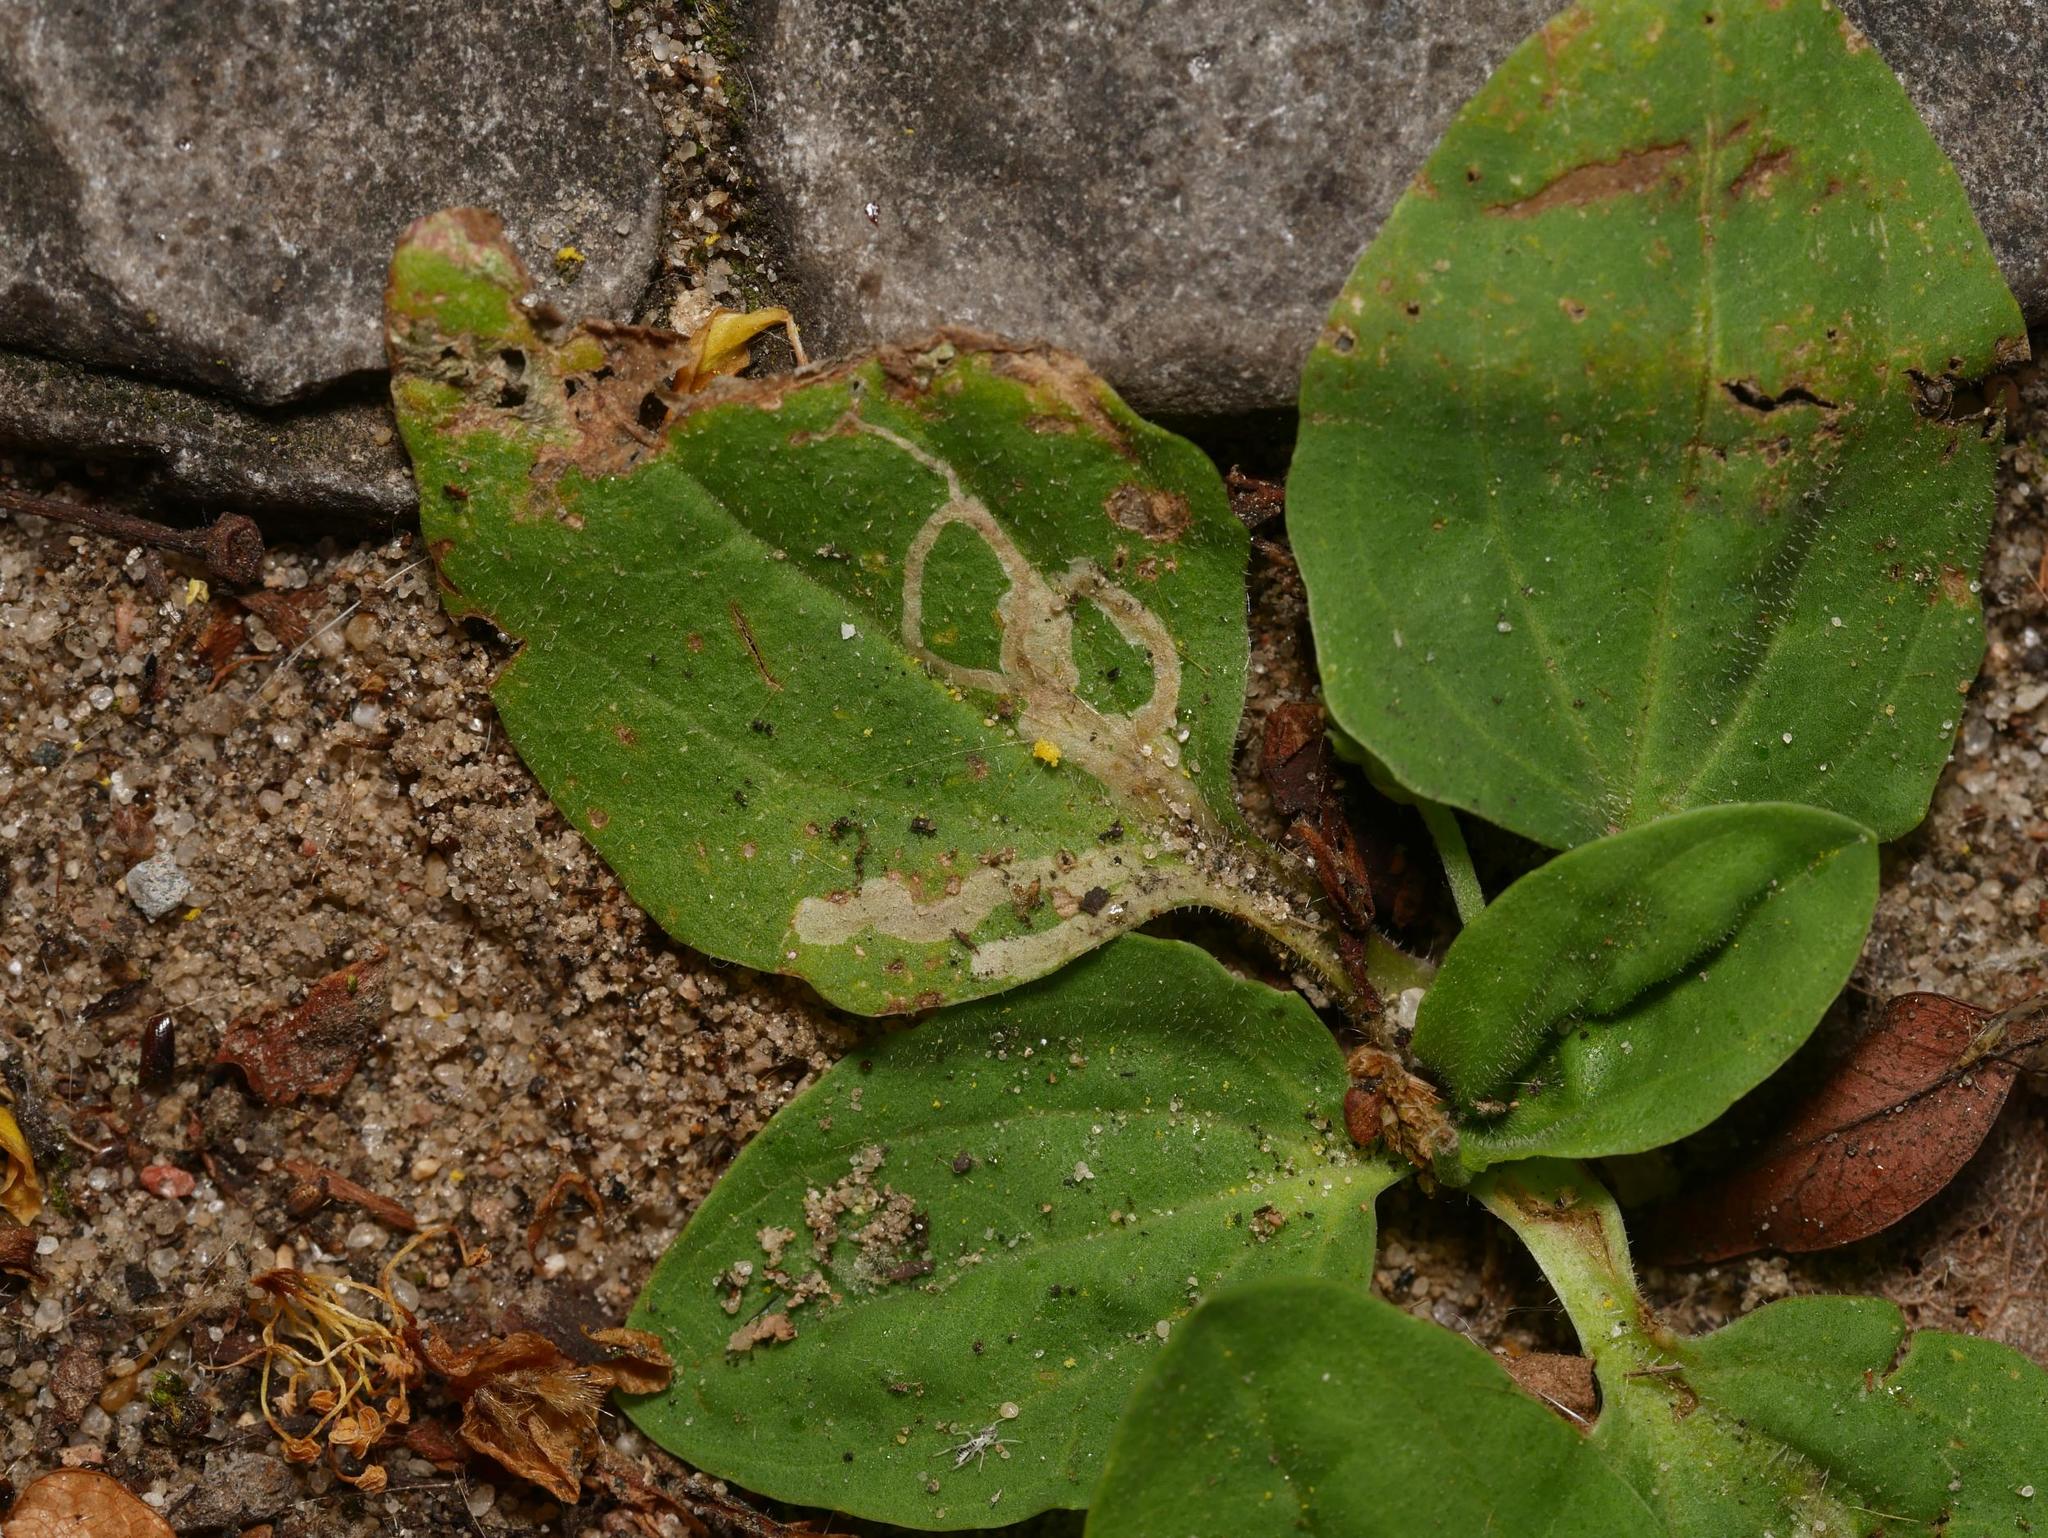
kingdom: Plantae
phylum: Tracheophyta
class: Magnoliopsida
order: Lamiales
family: Plantaginaceae
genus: Plantago
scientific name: Plantago major
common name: Common plantain
